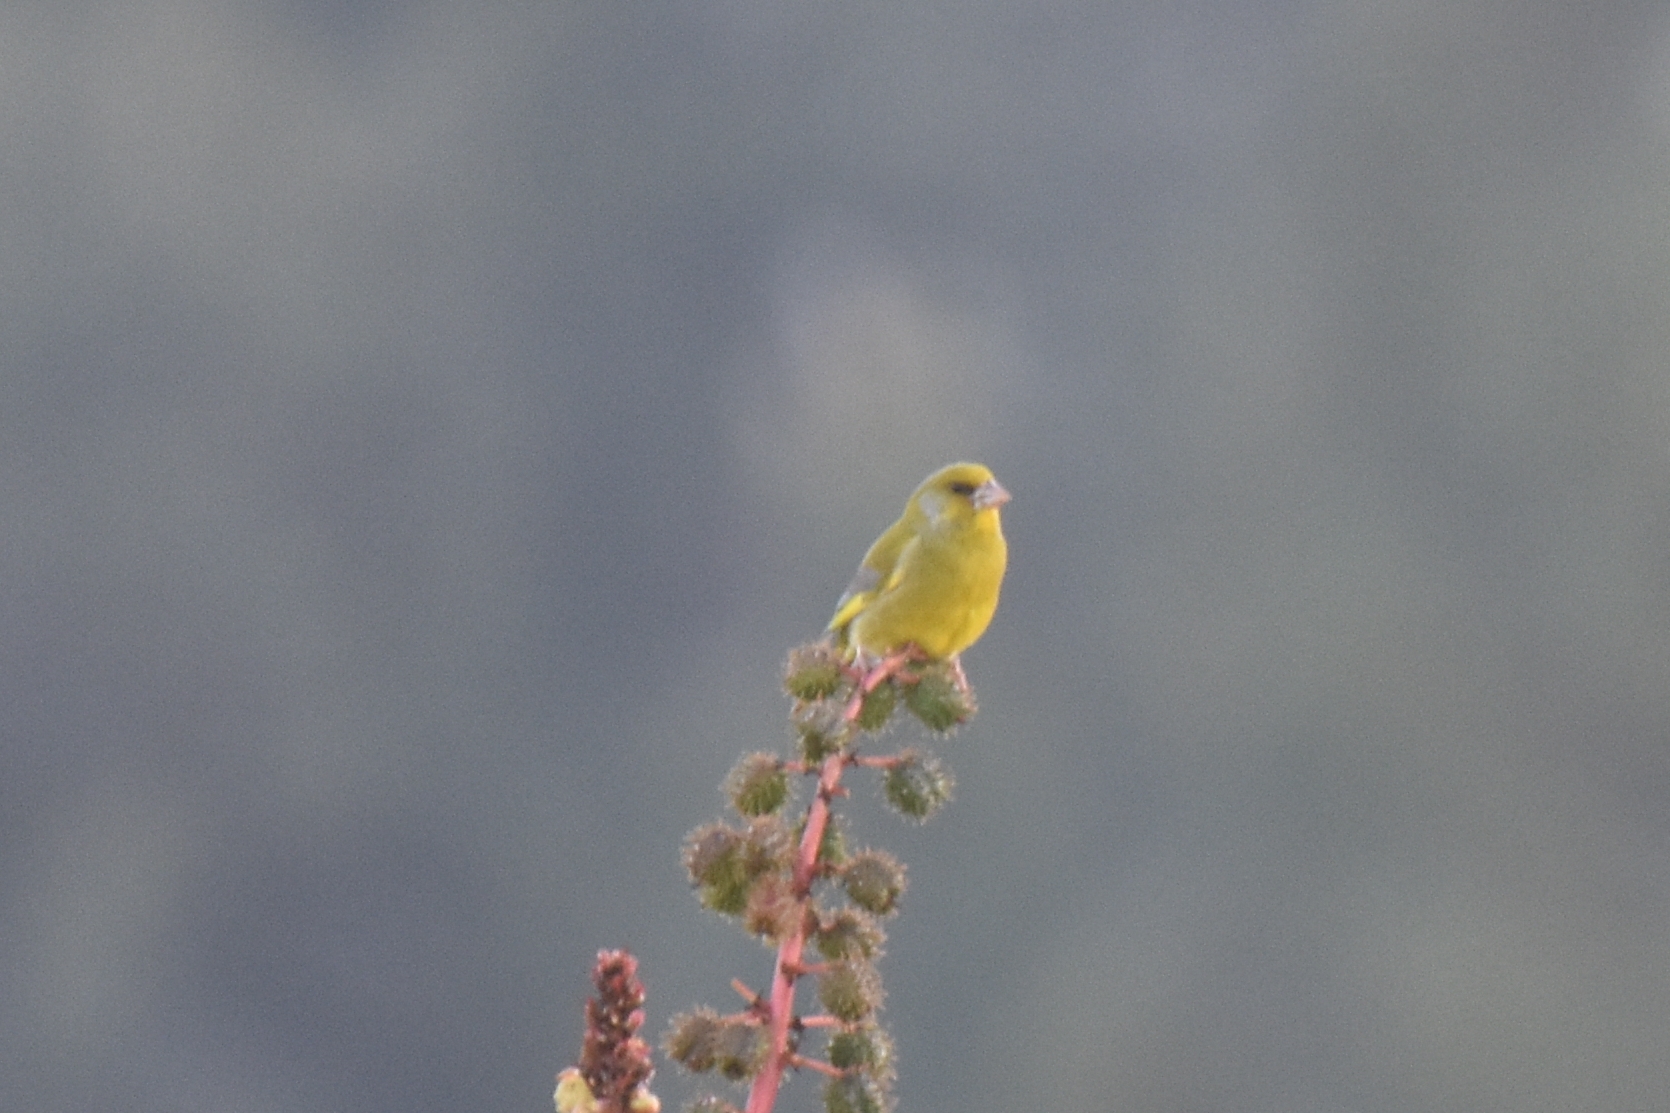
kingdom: Plantae
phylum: Tracheophyta
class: Liliopsida
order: Poales
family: Poaceae
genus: Chloris
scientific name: Chloris chloris
